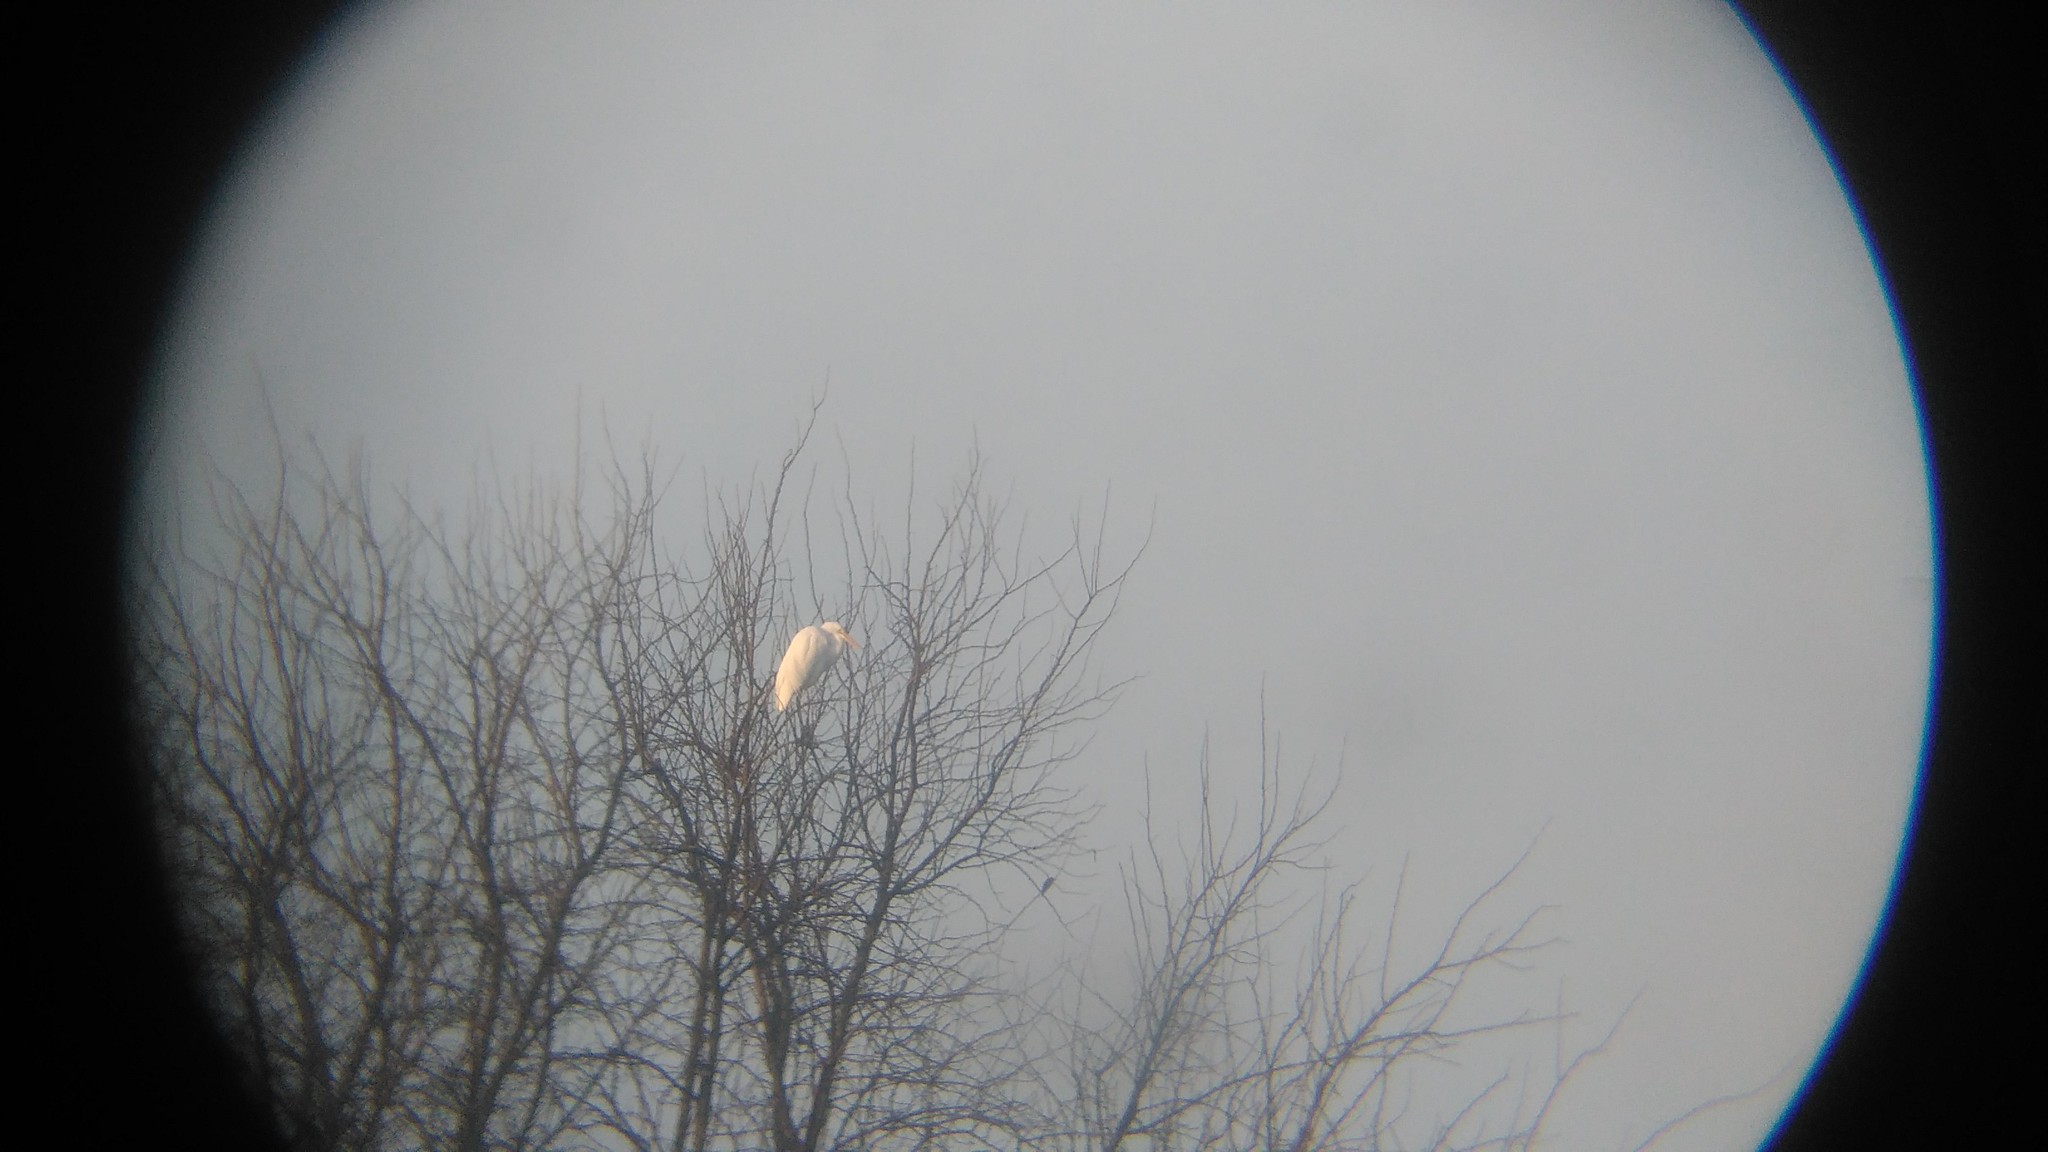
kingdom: Animalia
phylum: Chordata
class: Aves
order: Pelecaniformes
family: Ardeidae
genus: Ardea
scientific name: Ardea alba
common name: Great egret
